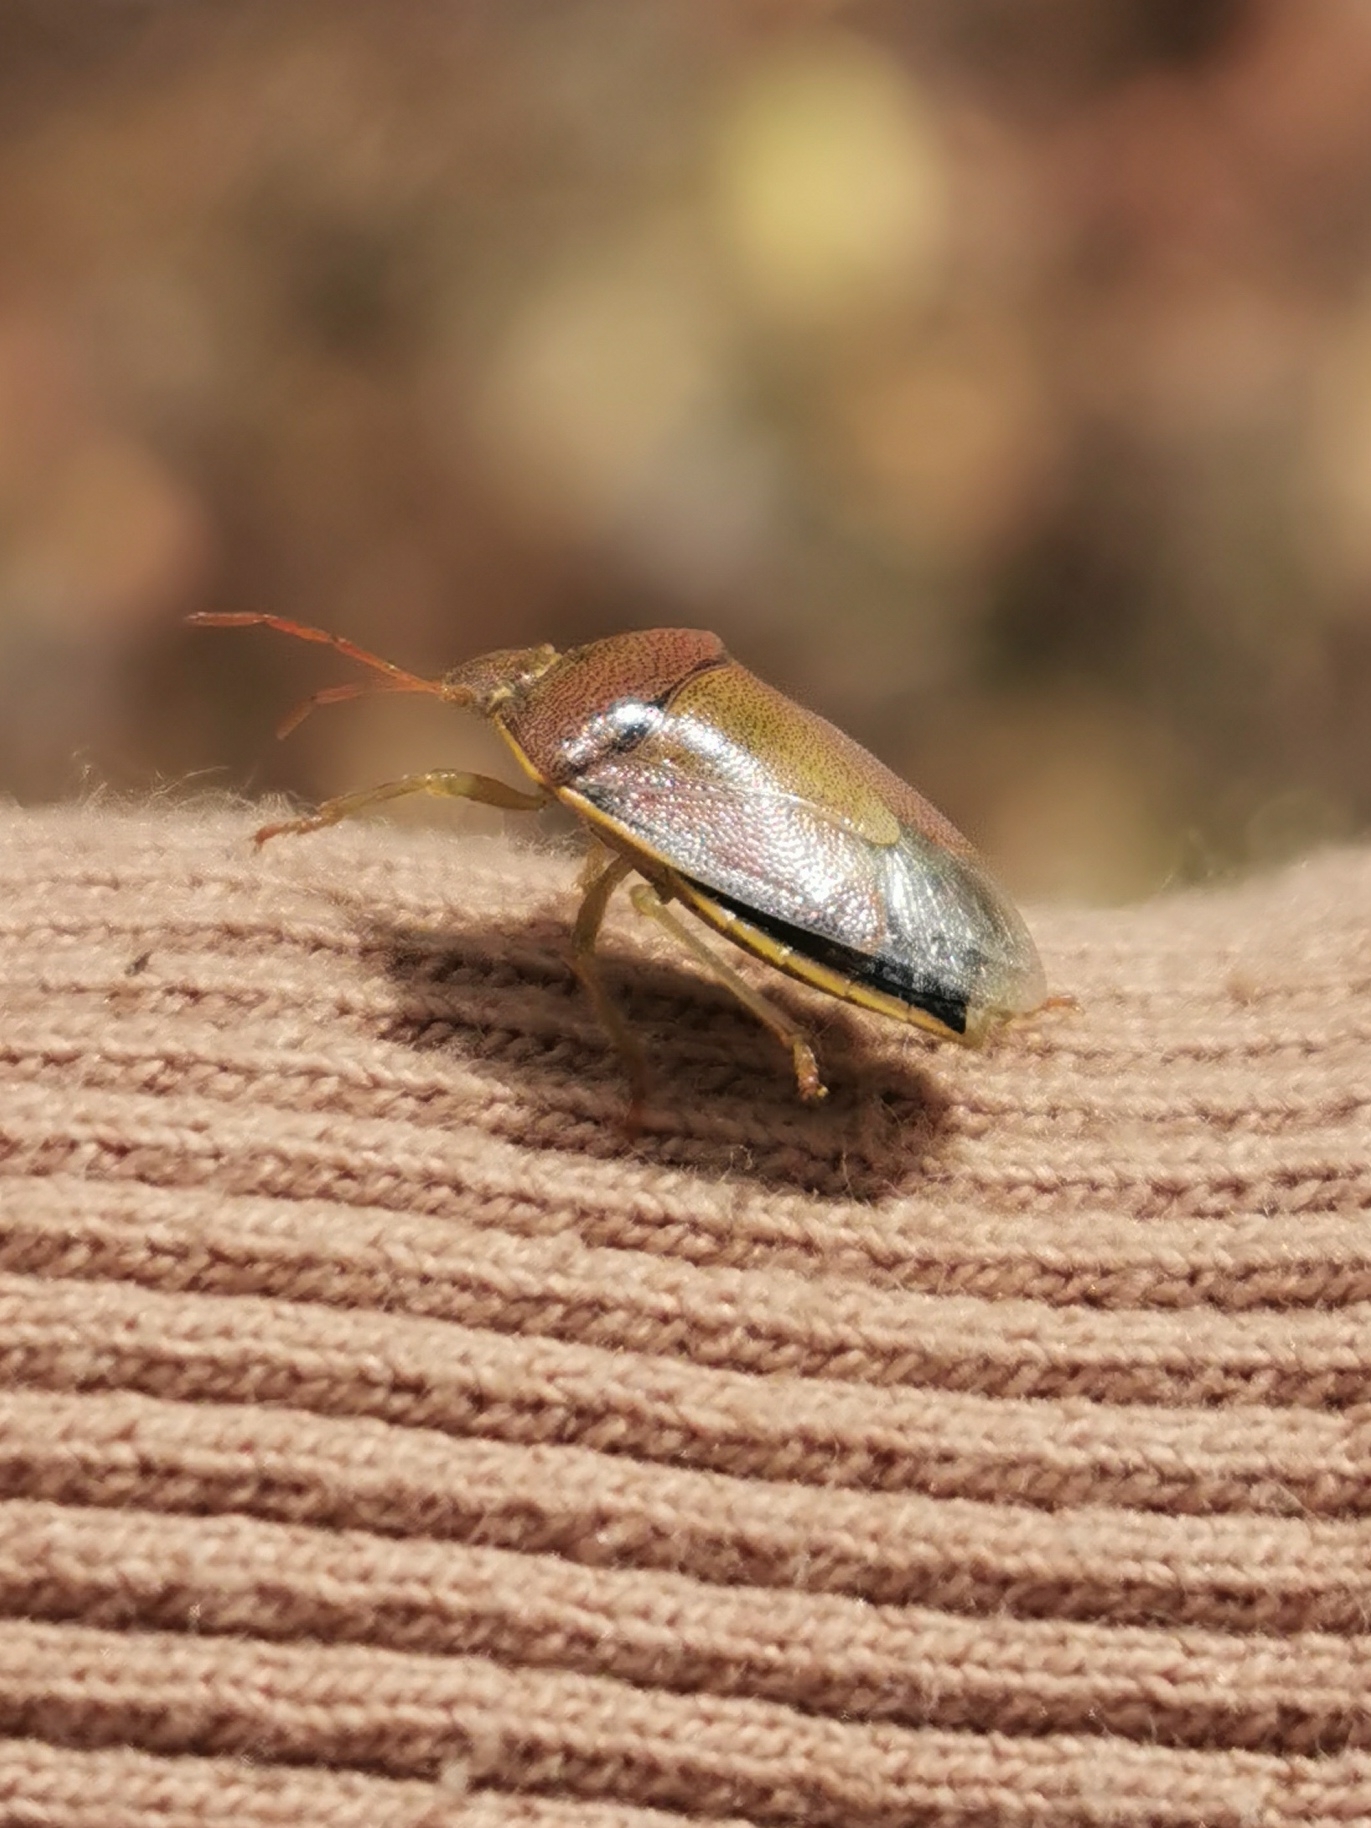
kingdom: Animalia
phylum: Arthropoda
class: Insecta
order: Hemiptera
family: Pentatomidae
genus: Piezodorus
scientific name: Piezodorus lituratus
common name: Stink bug
